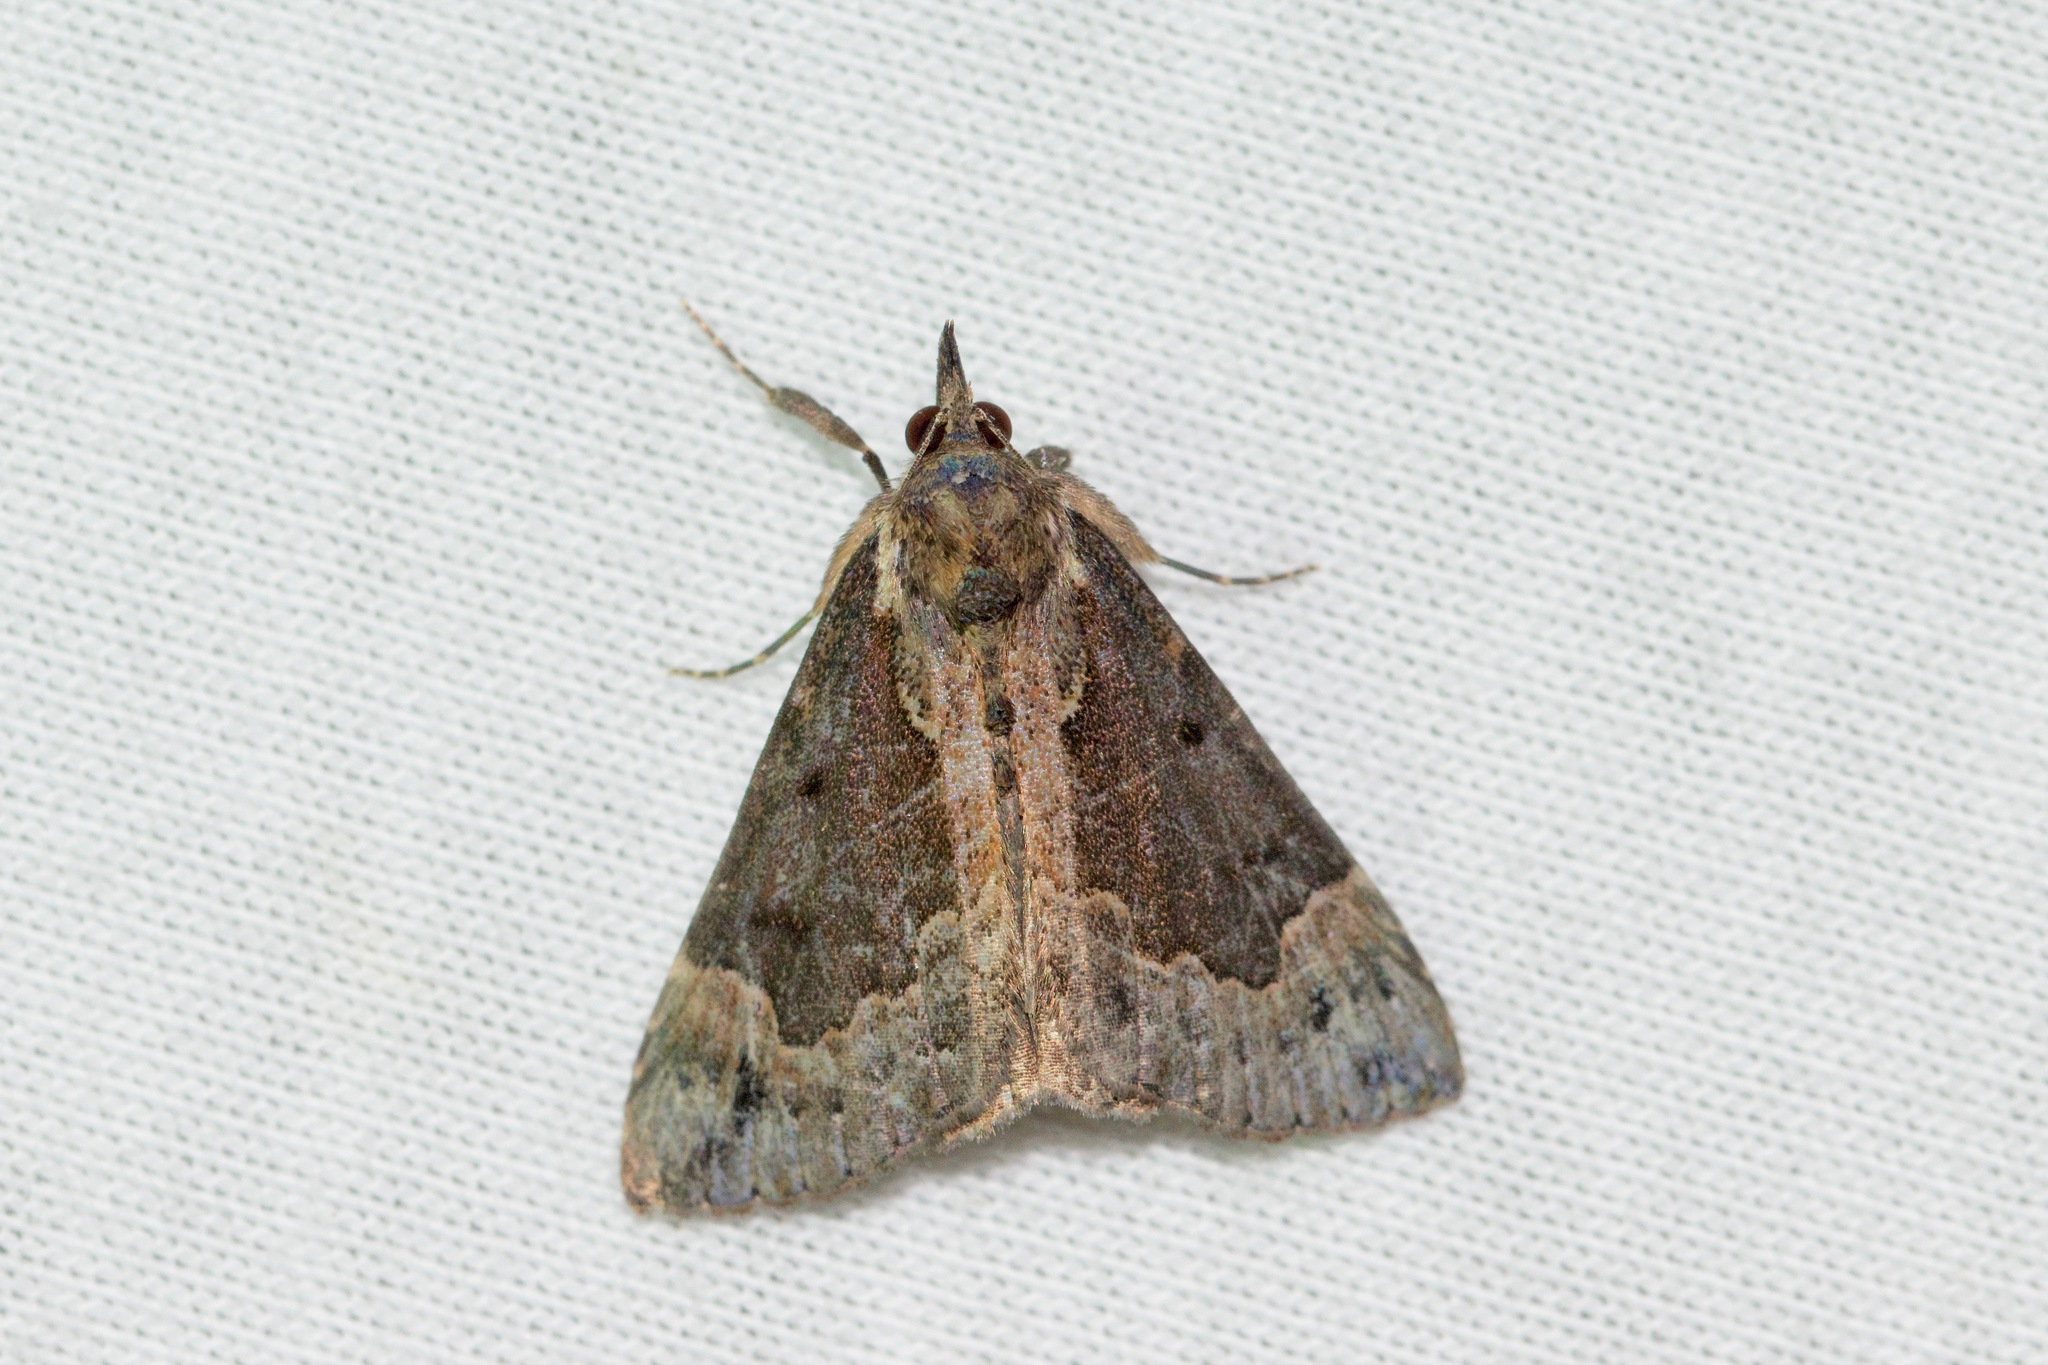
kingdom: Animalia
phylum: Arthropoda
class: Insecta
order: Lepidoptera
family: Erebidae
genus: Hypena
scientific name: Hypena baltimoralis
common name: Baltimore snout
